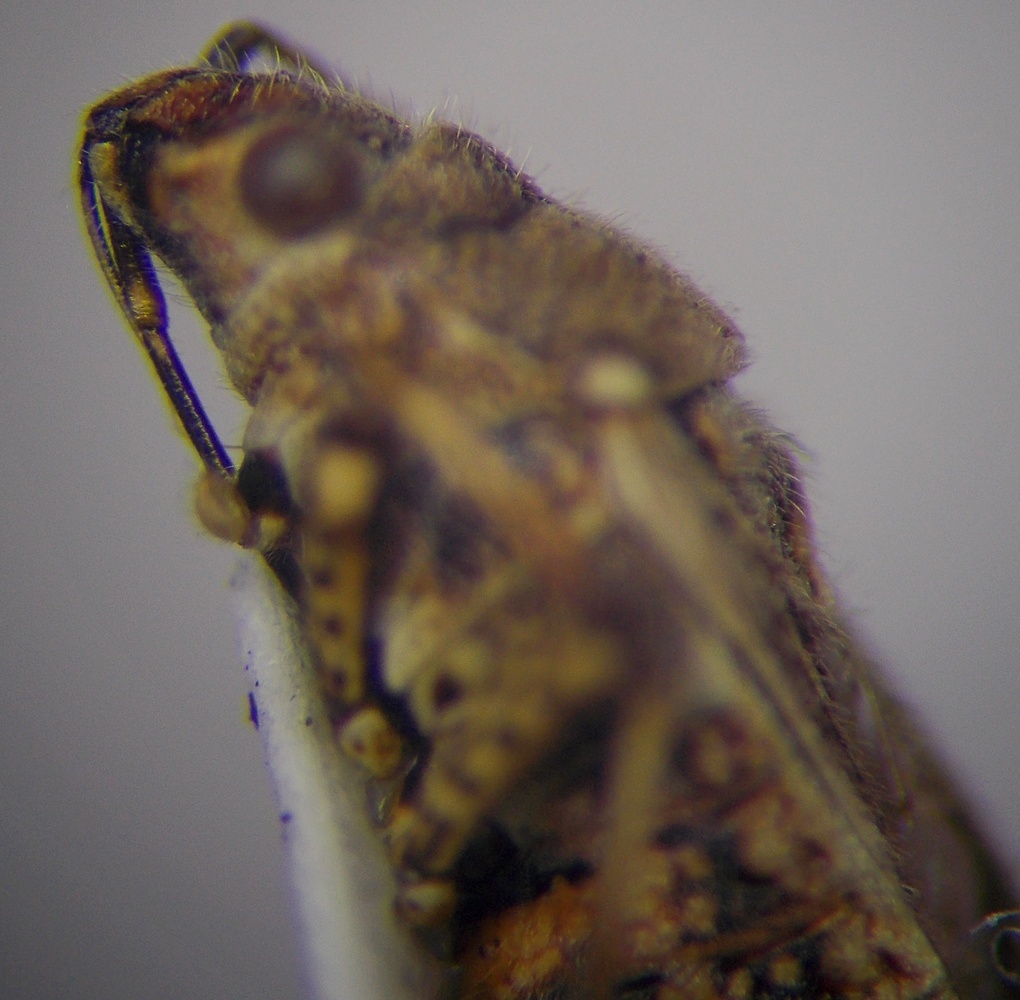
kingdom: Animalia
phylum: Arthropoda
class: Insecta
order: Hemiptera
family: Lygaeidae
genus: Ortholomus
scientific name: Ortholomus punctipennis
